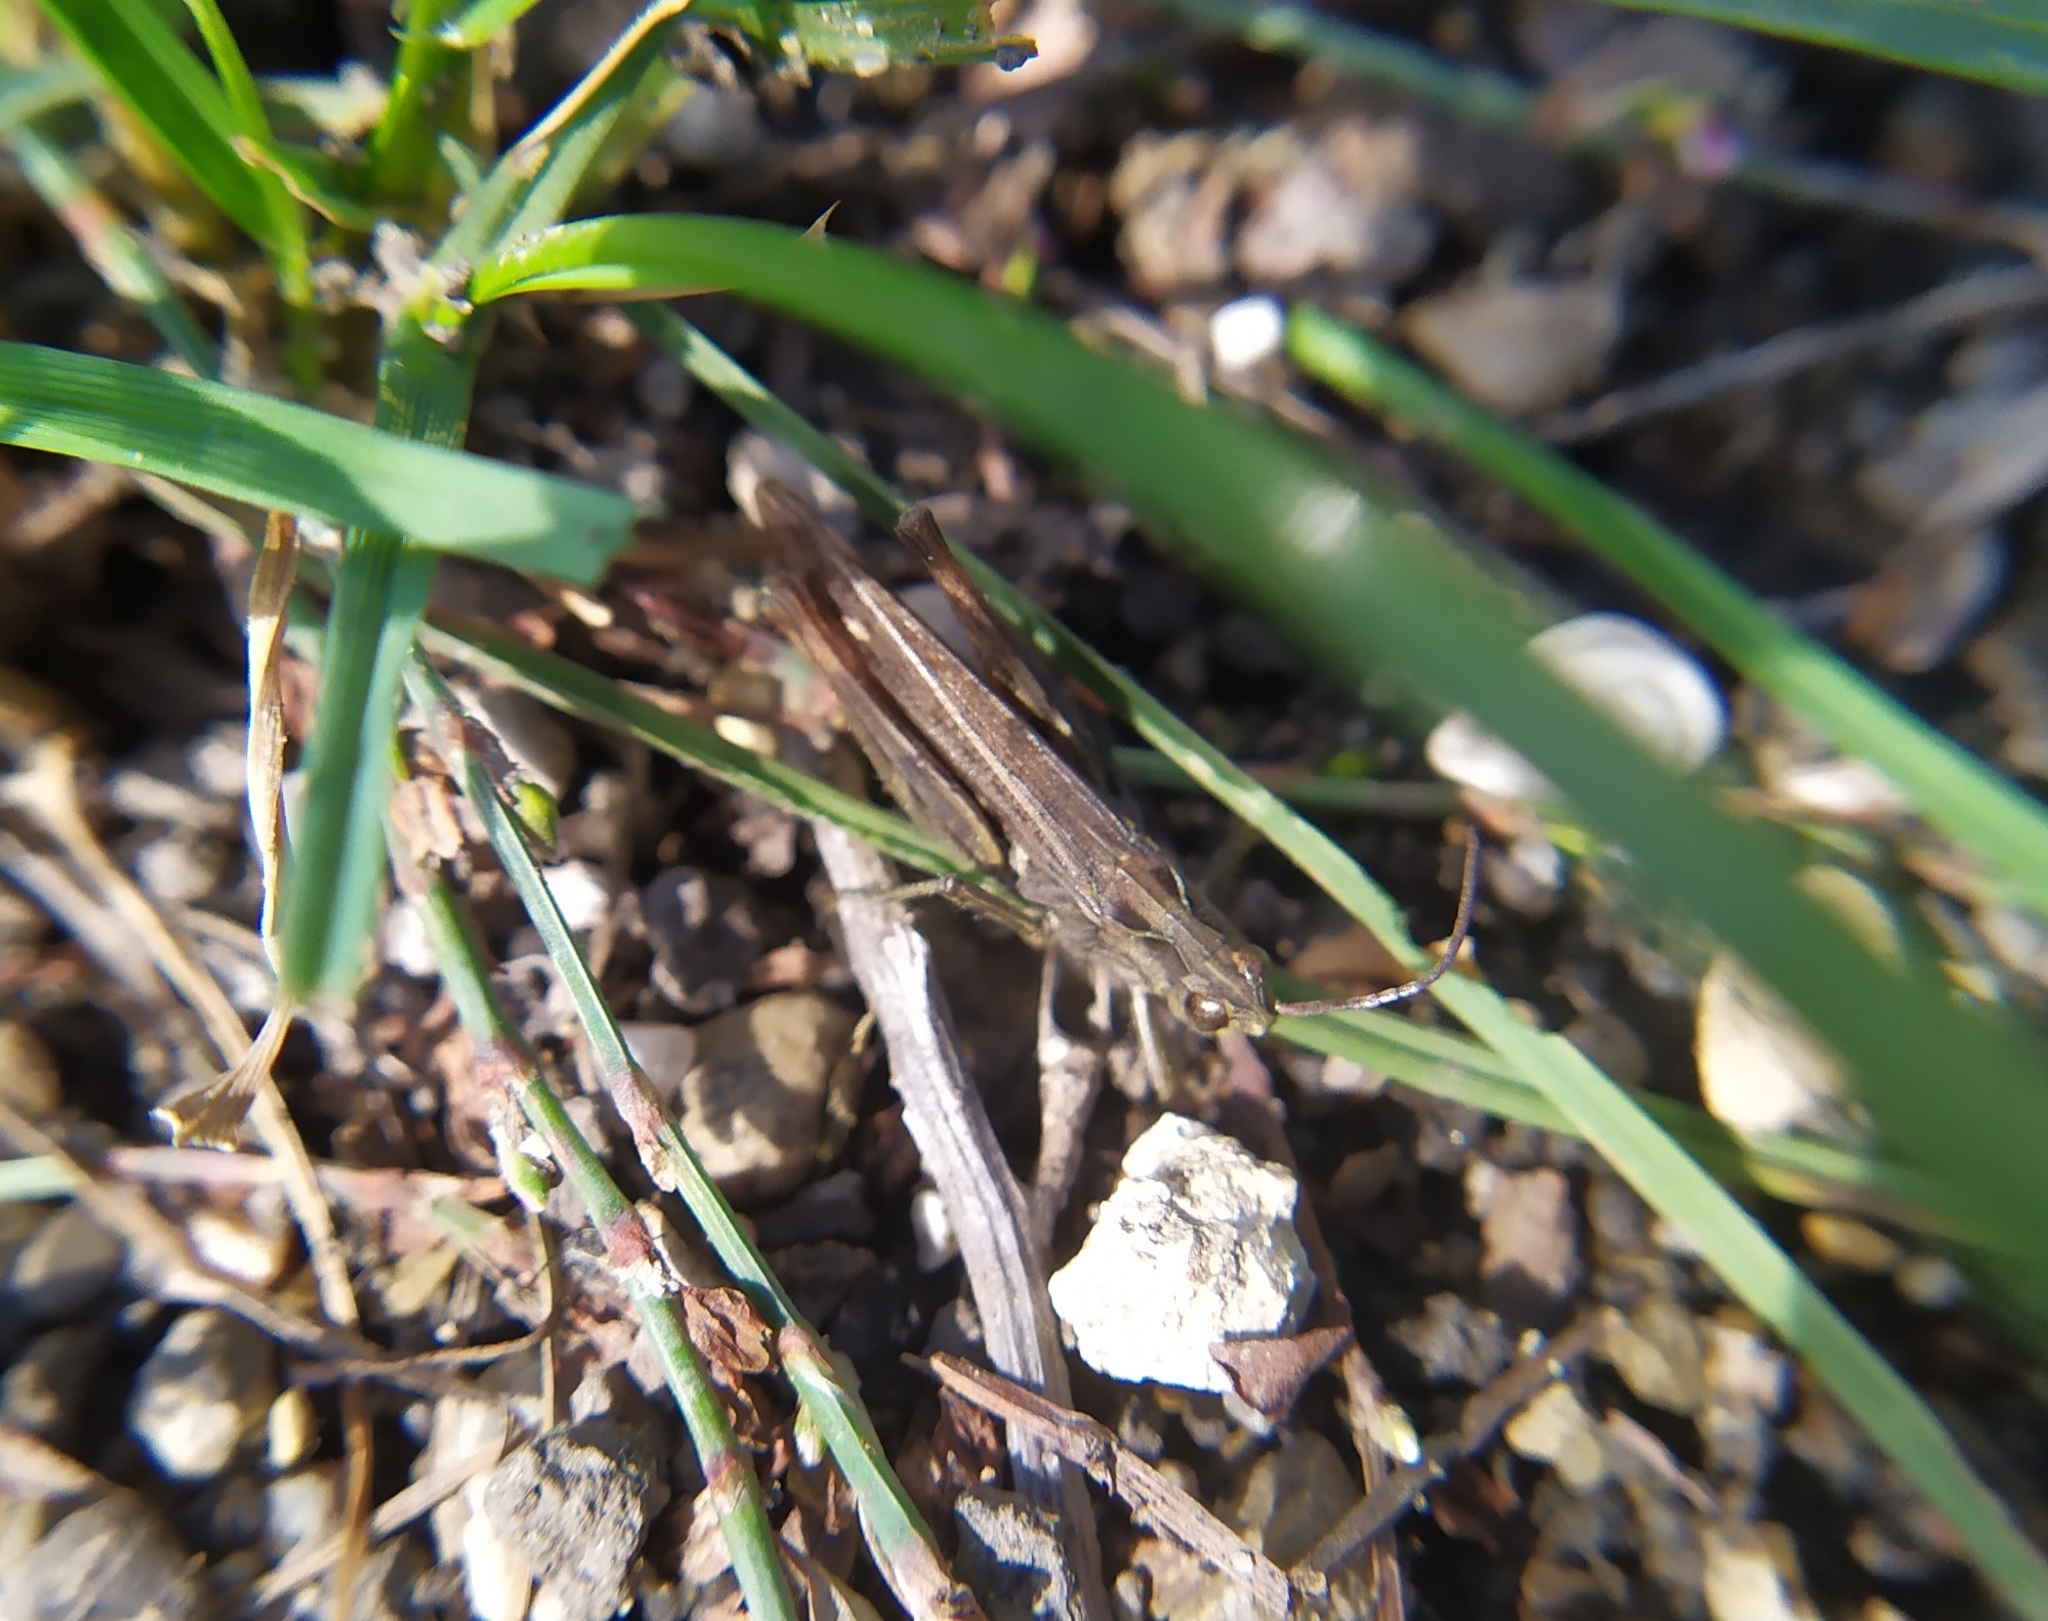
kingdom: Animalia
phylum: Arthropoda
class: Insecta
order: Orthoptera
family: Acrididae
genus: Chorthippus
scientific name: Chorthippus biguttulus
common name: Bow-winged grasshopper
